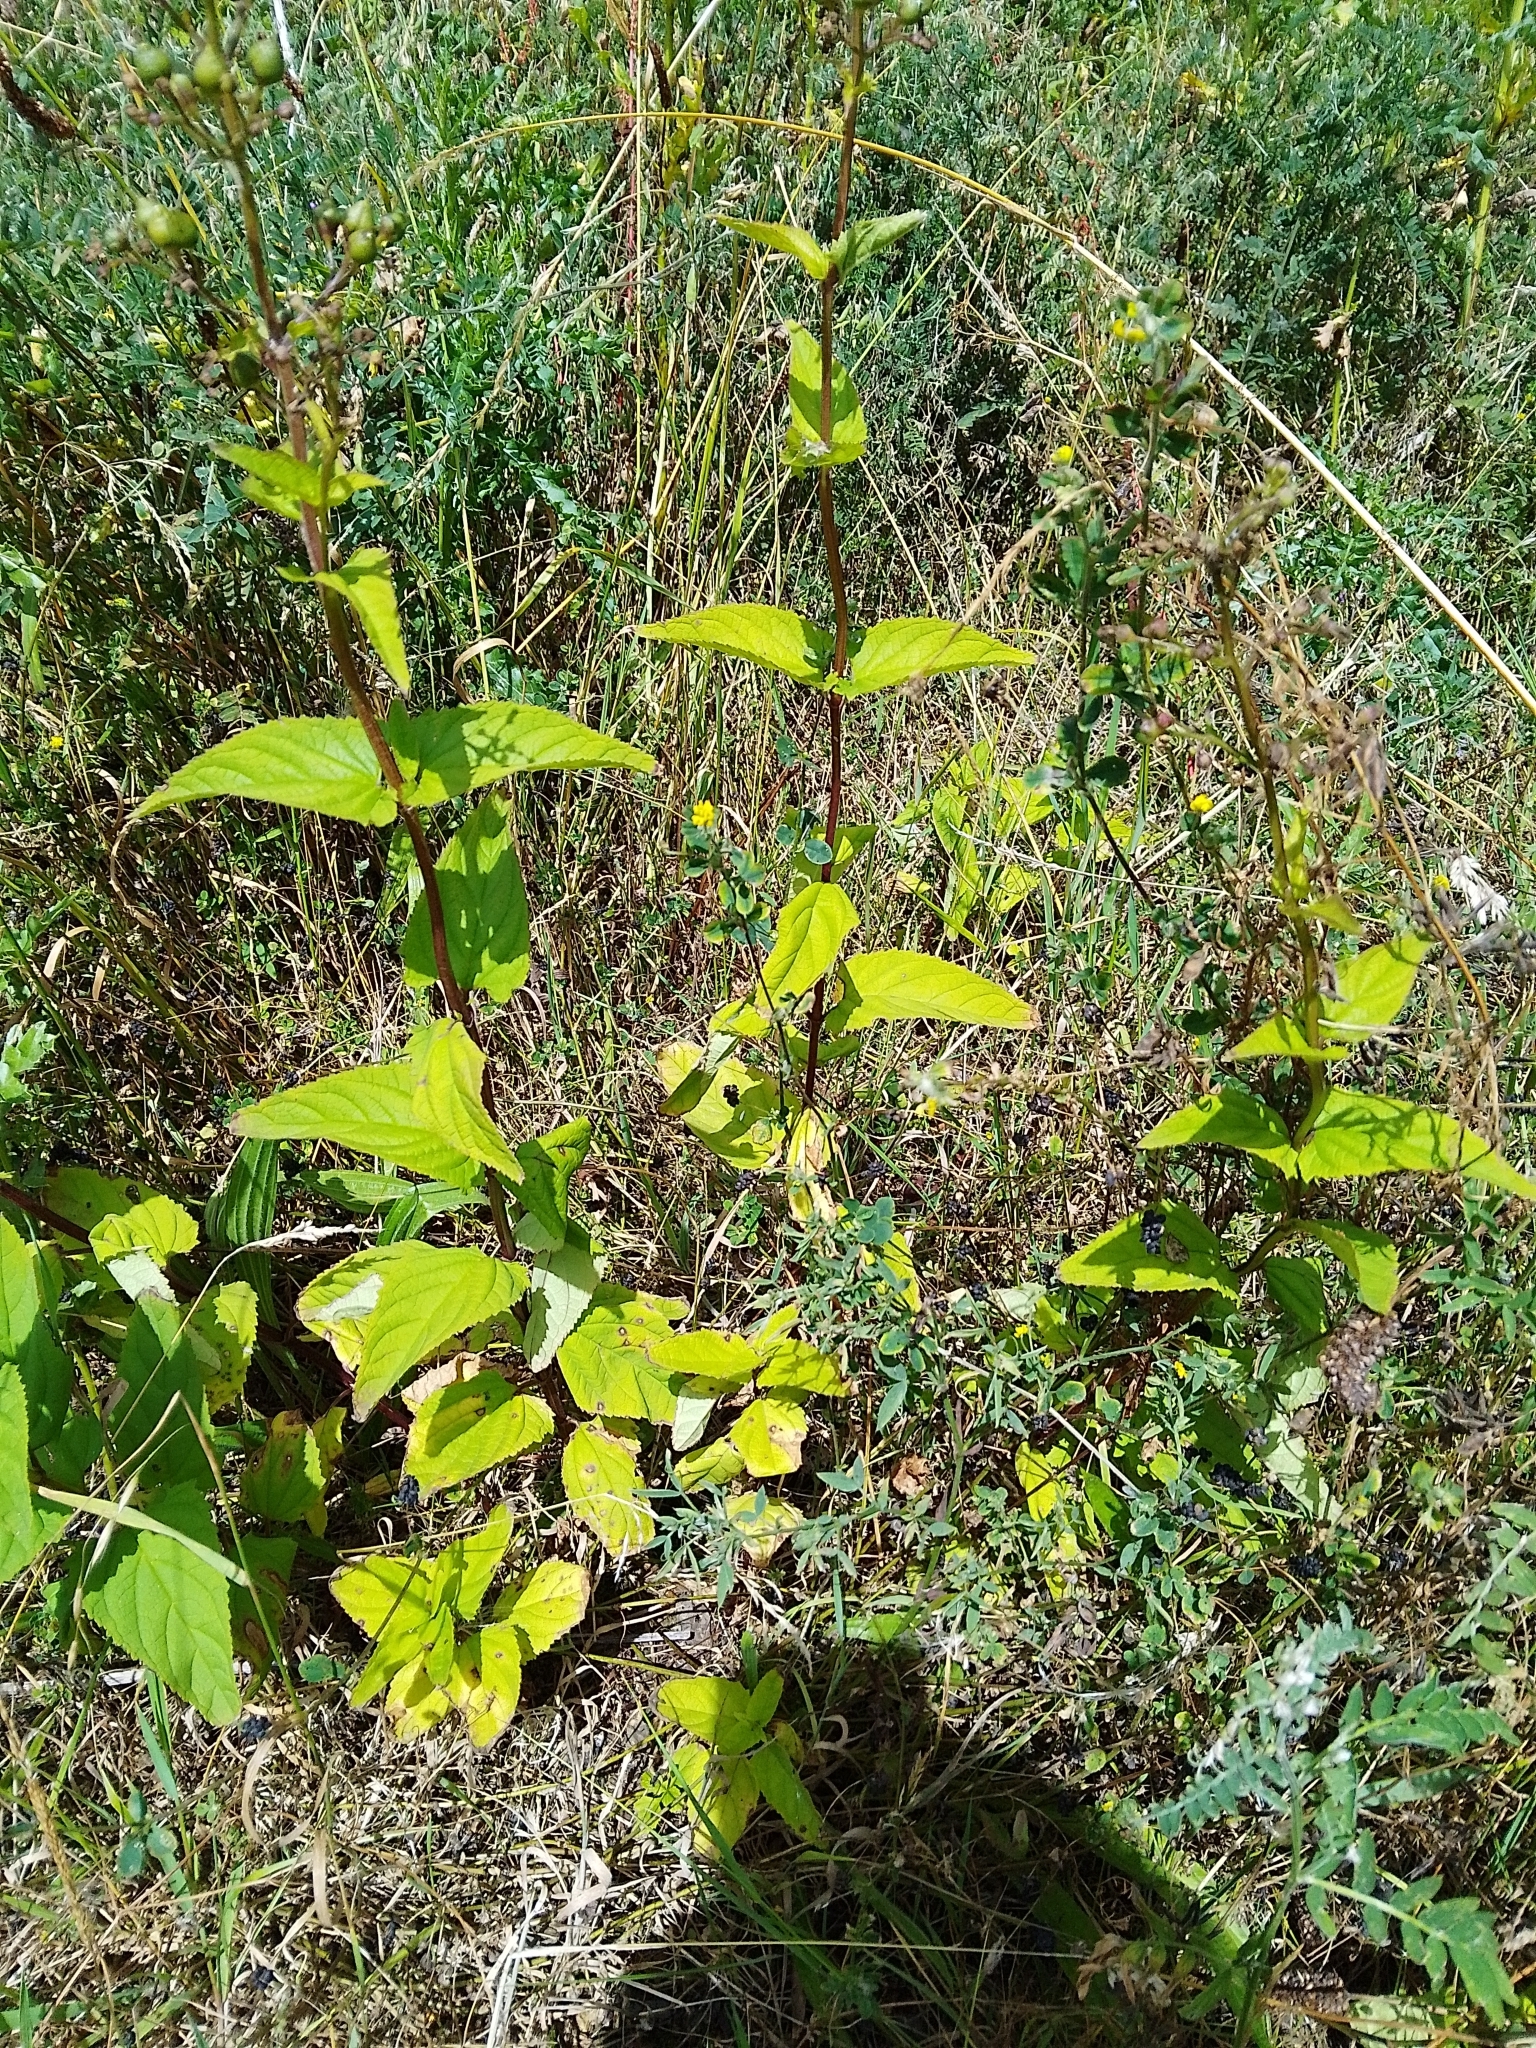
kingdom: Plantae
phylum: Tracheophyta
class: Magnoliopsida
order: Lamiales
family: Scrophulariaceae
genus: Scrophularia
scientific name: Scrophularia nodosa
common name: Common figwort
